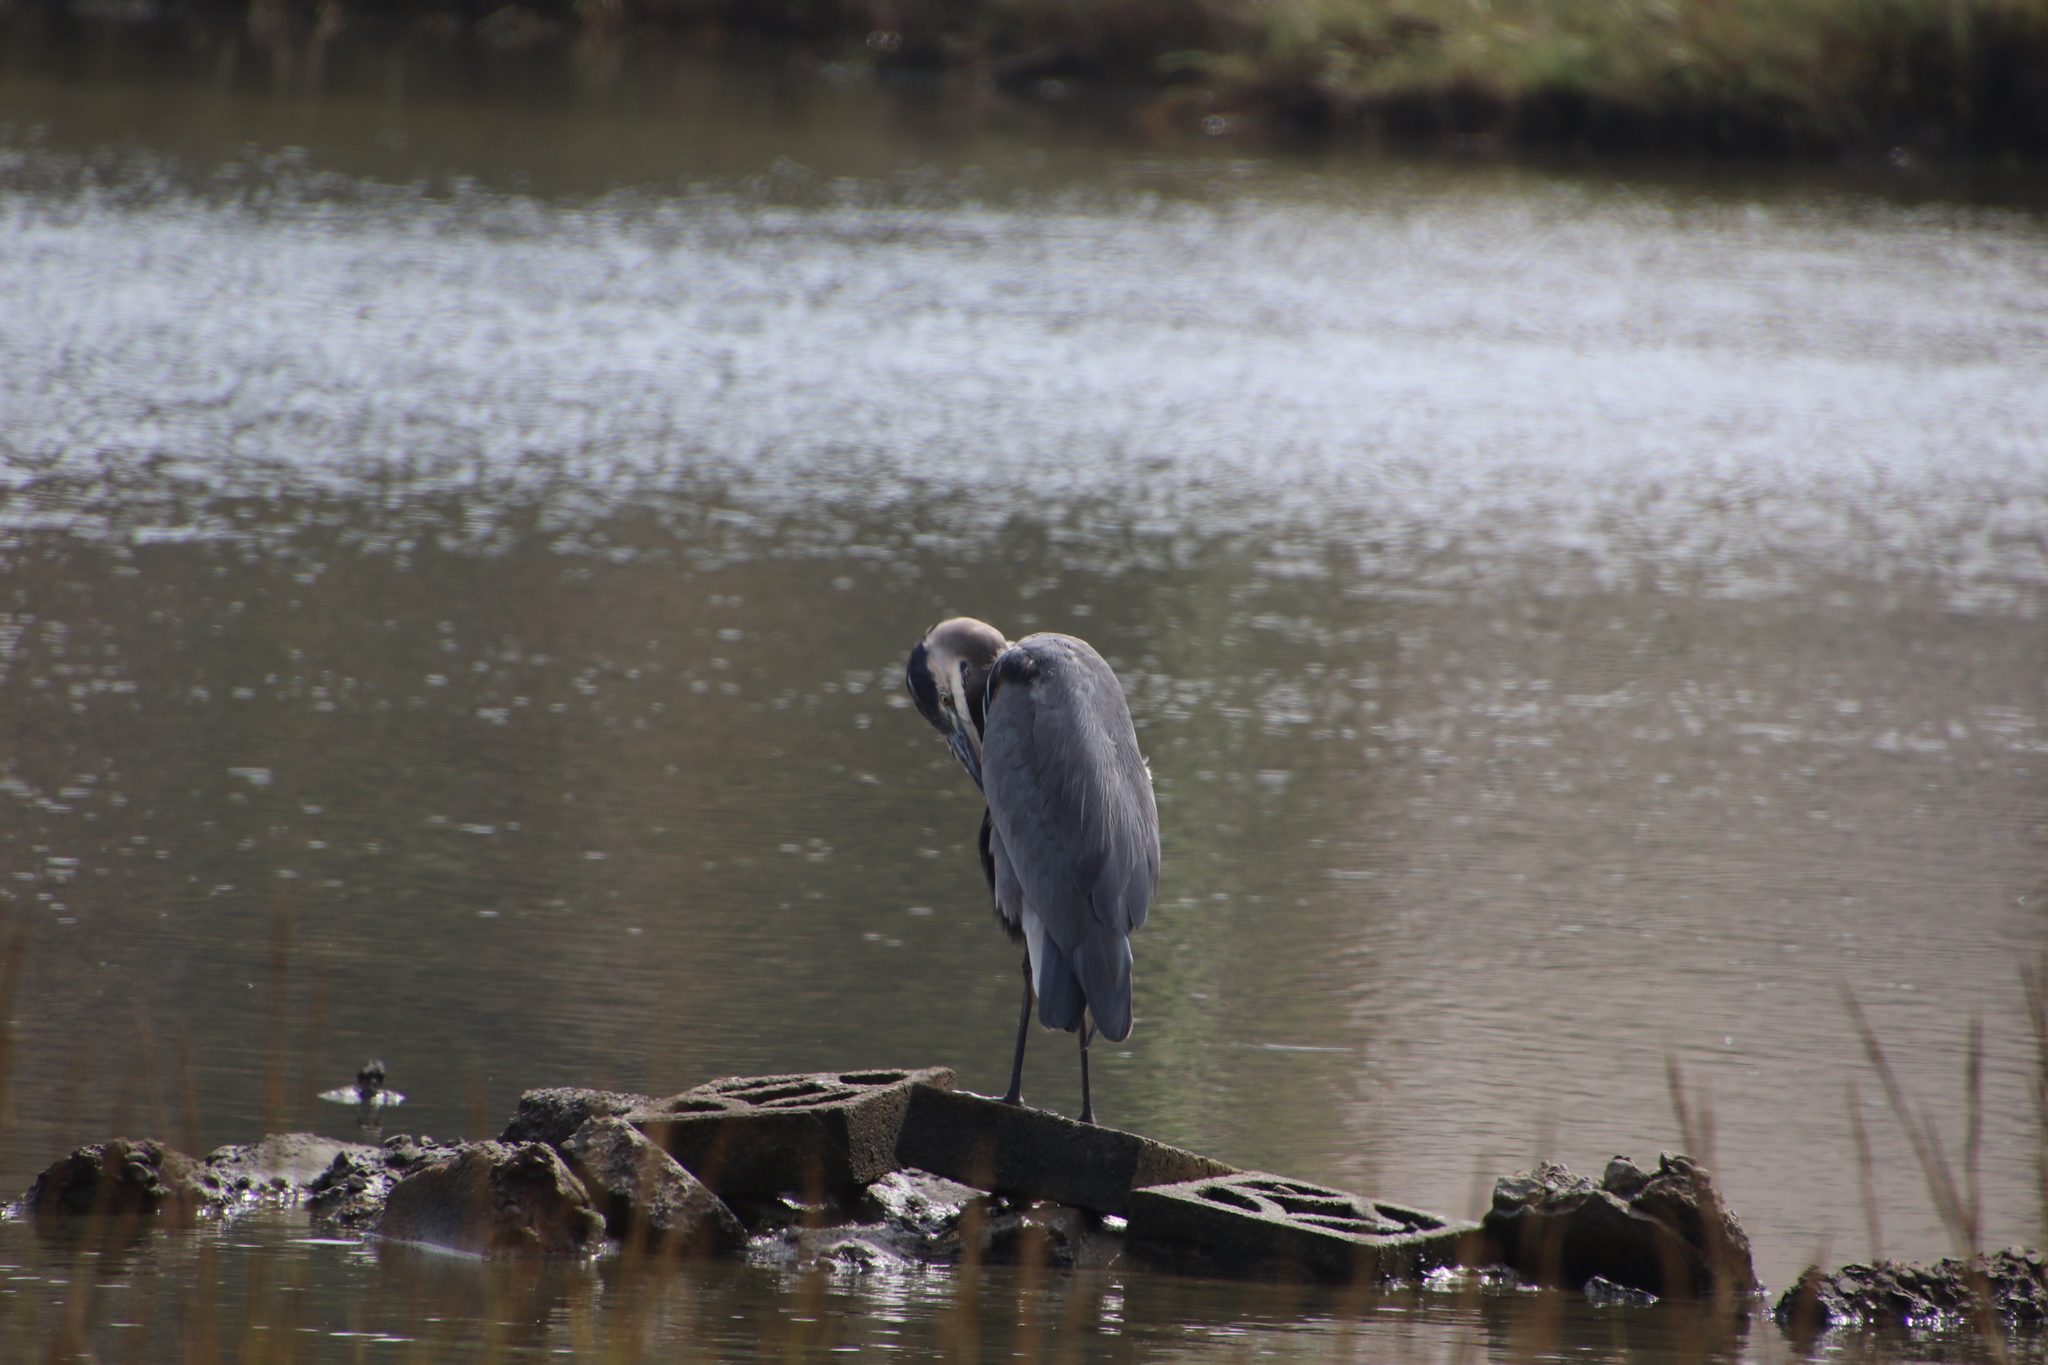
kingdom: Animalia
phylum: Chordata
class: Aves
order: Pelecaniformes
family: Ardeidae
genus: Ardea
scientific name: Ardea herodias
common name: Great blue heron
